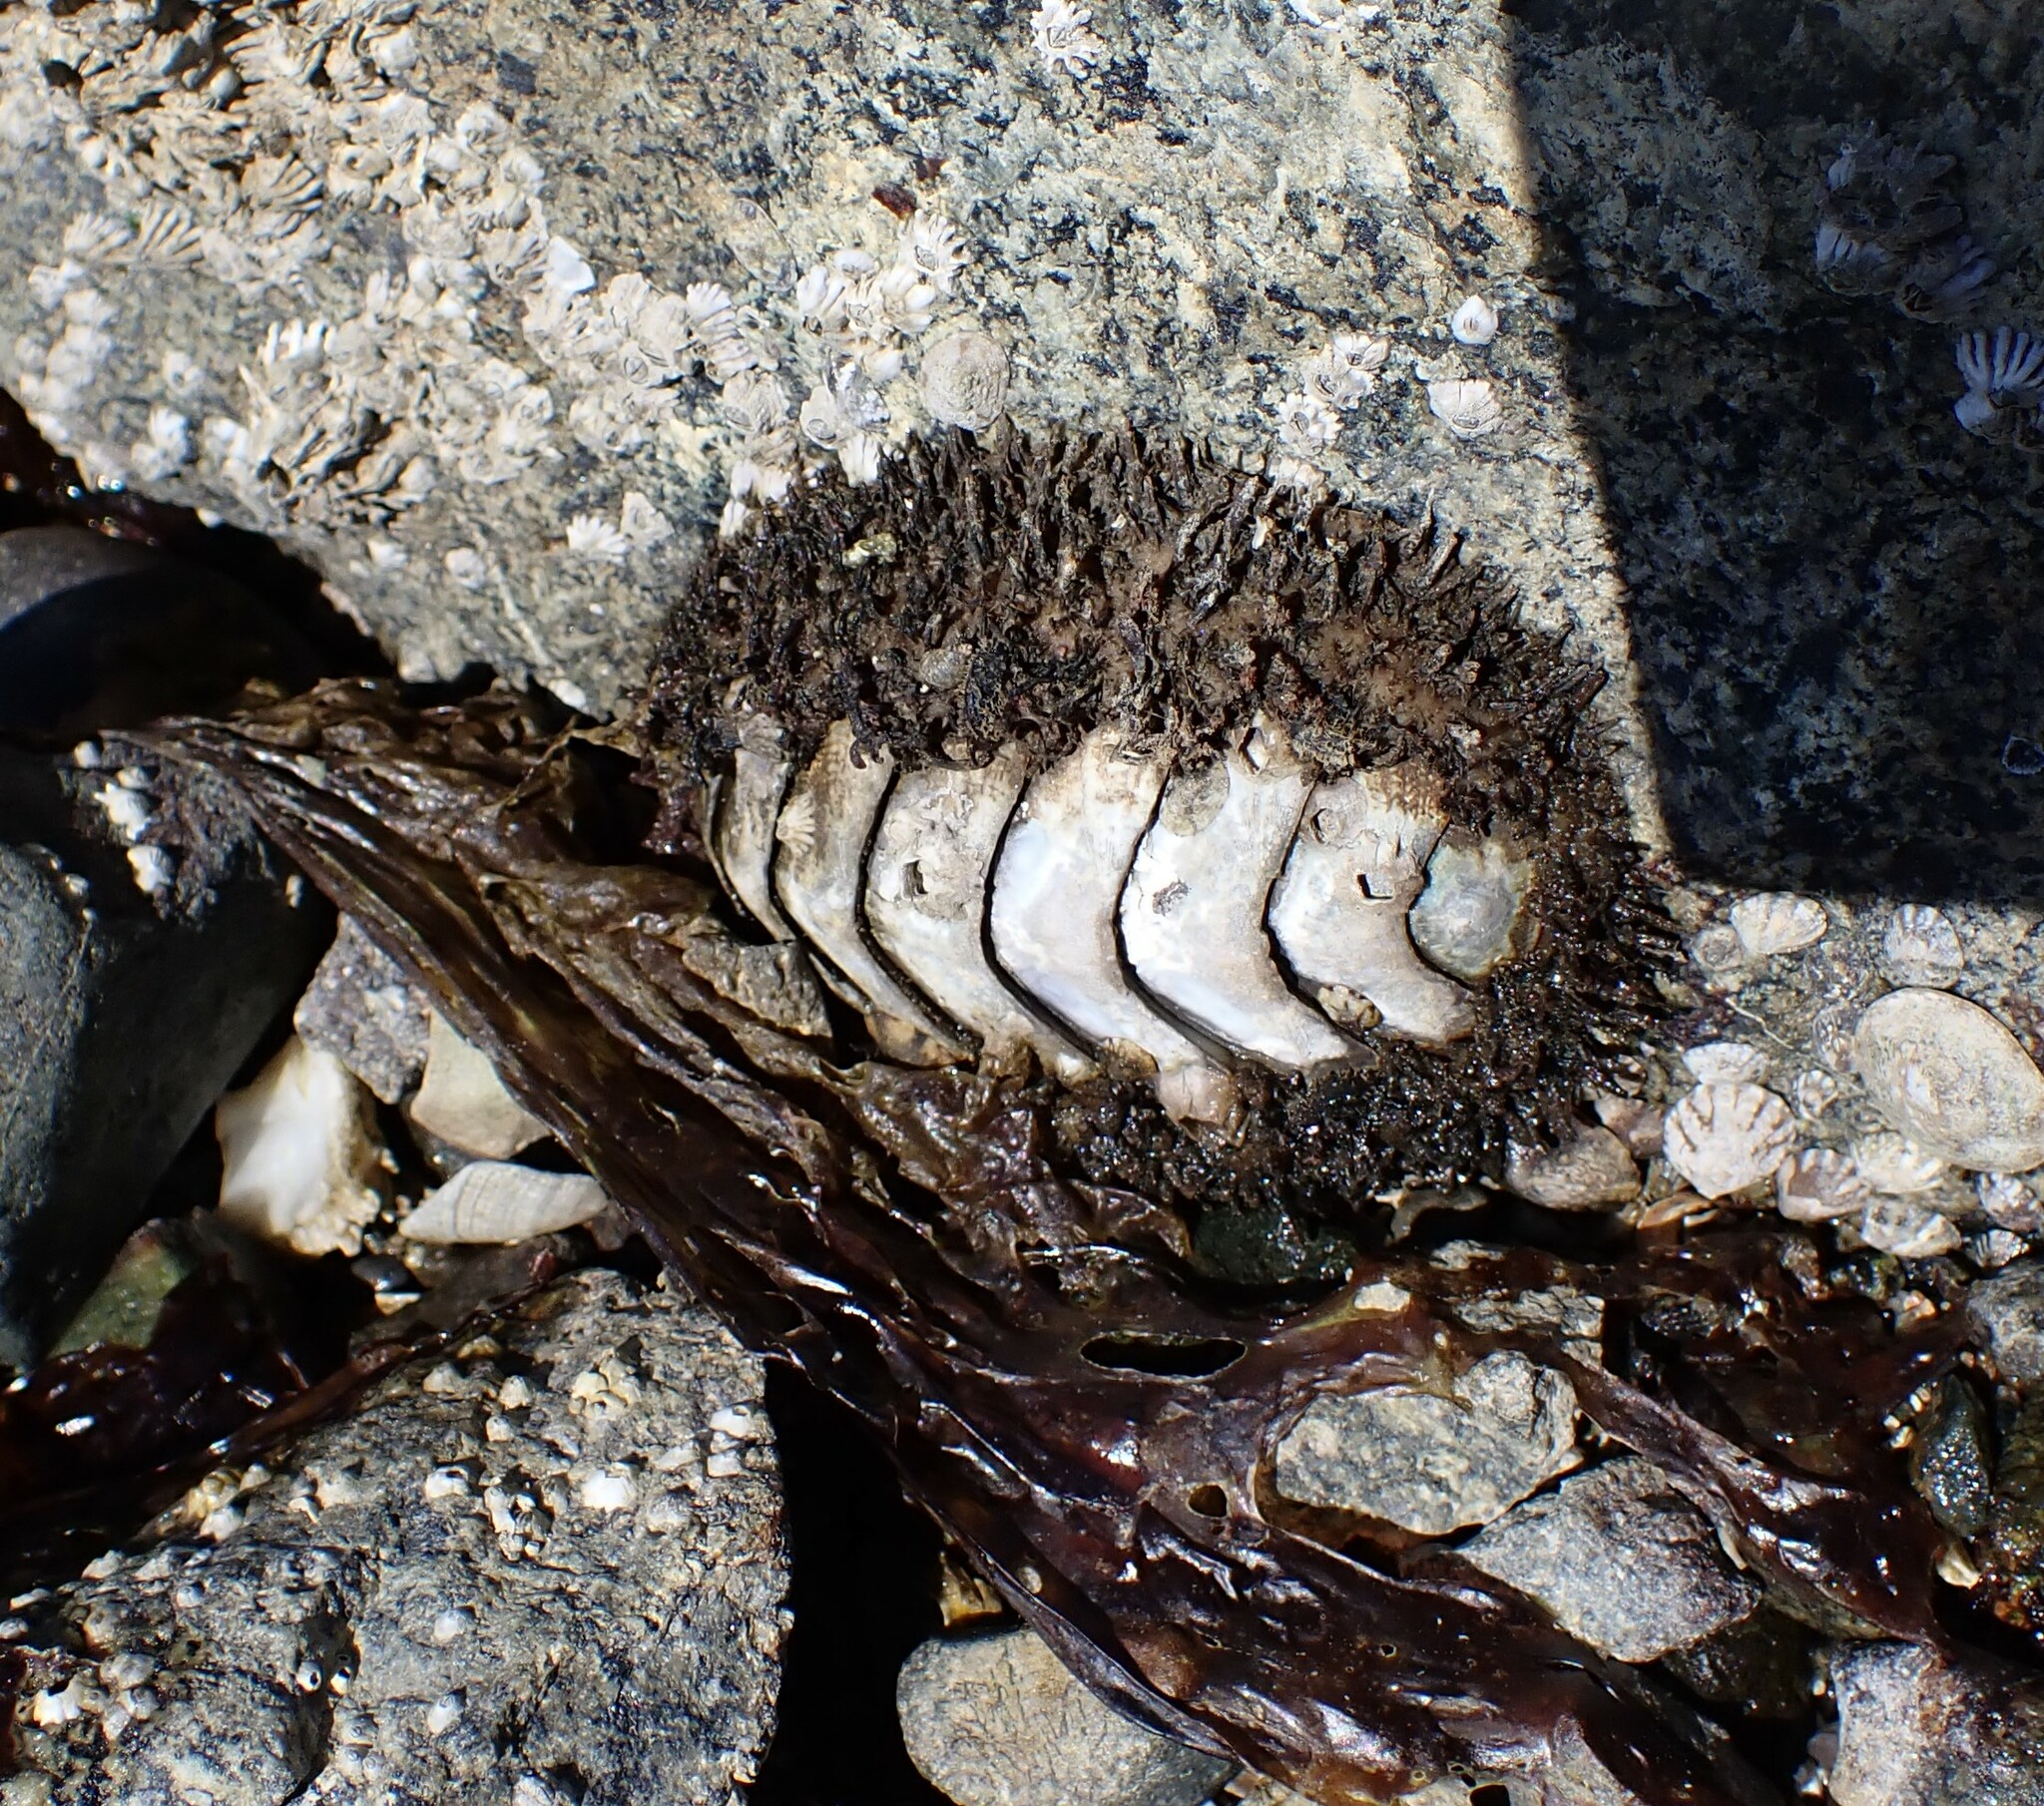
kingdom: Animalia
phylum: Mollusca
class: Polyplacophora
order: Chitonida
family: Mopaliidae
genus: Mopalia
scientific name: Mopalia muscosa
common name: Mossy chiton
